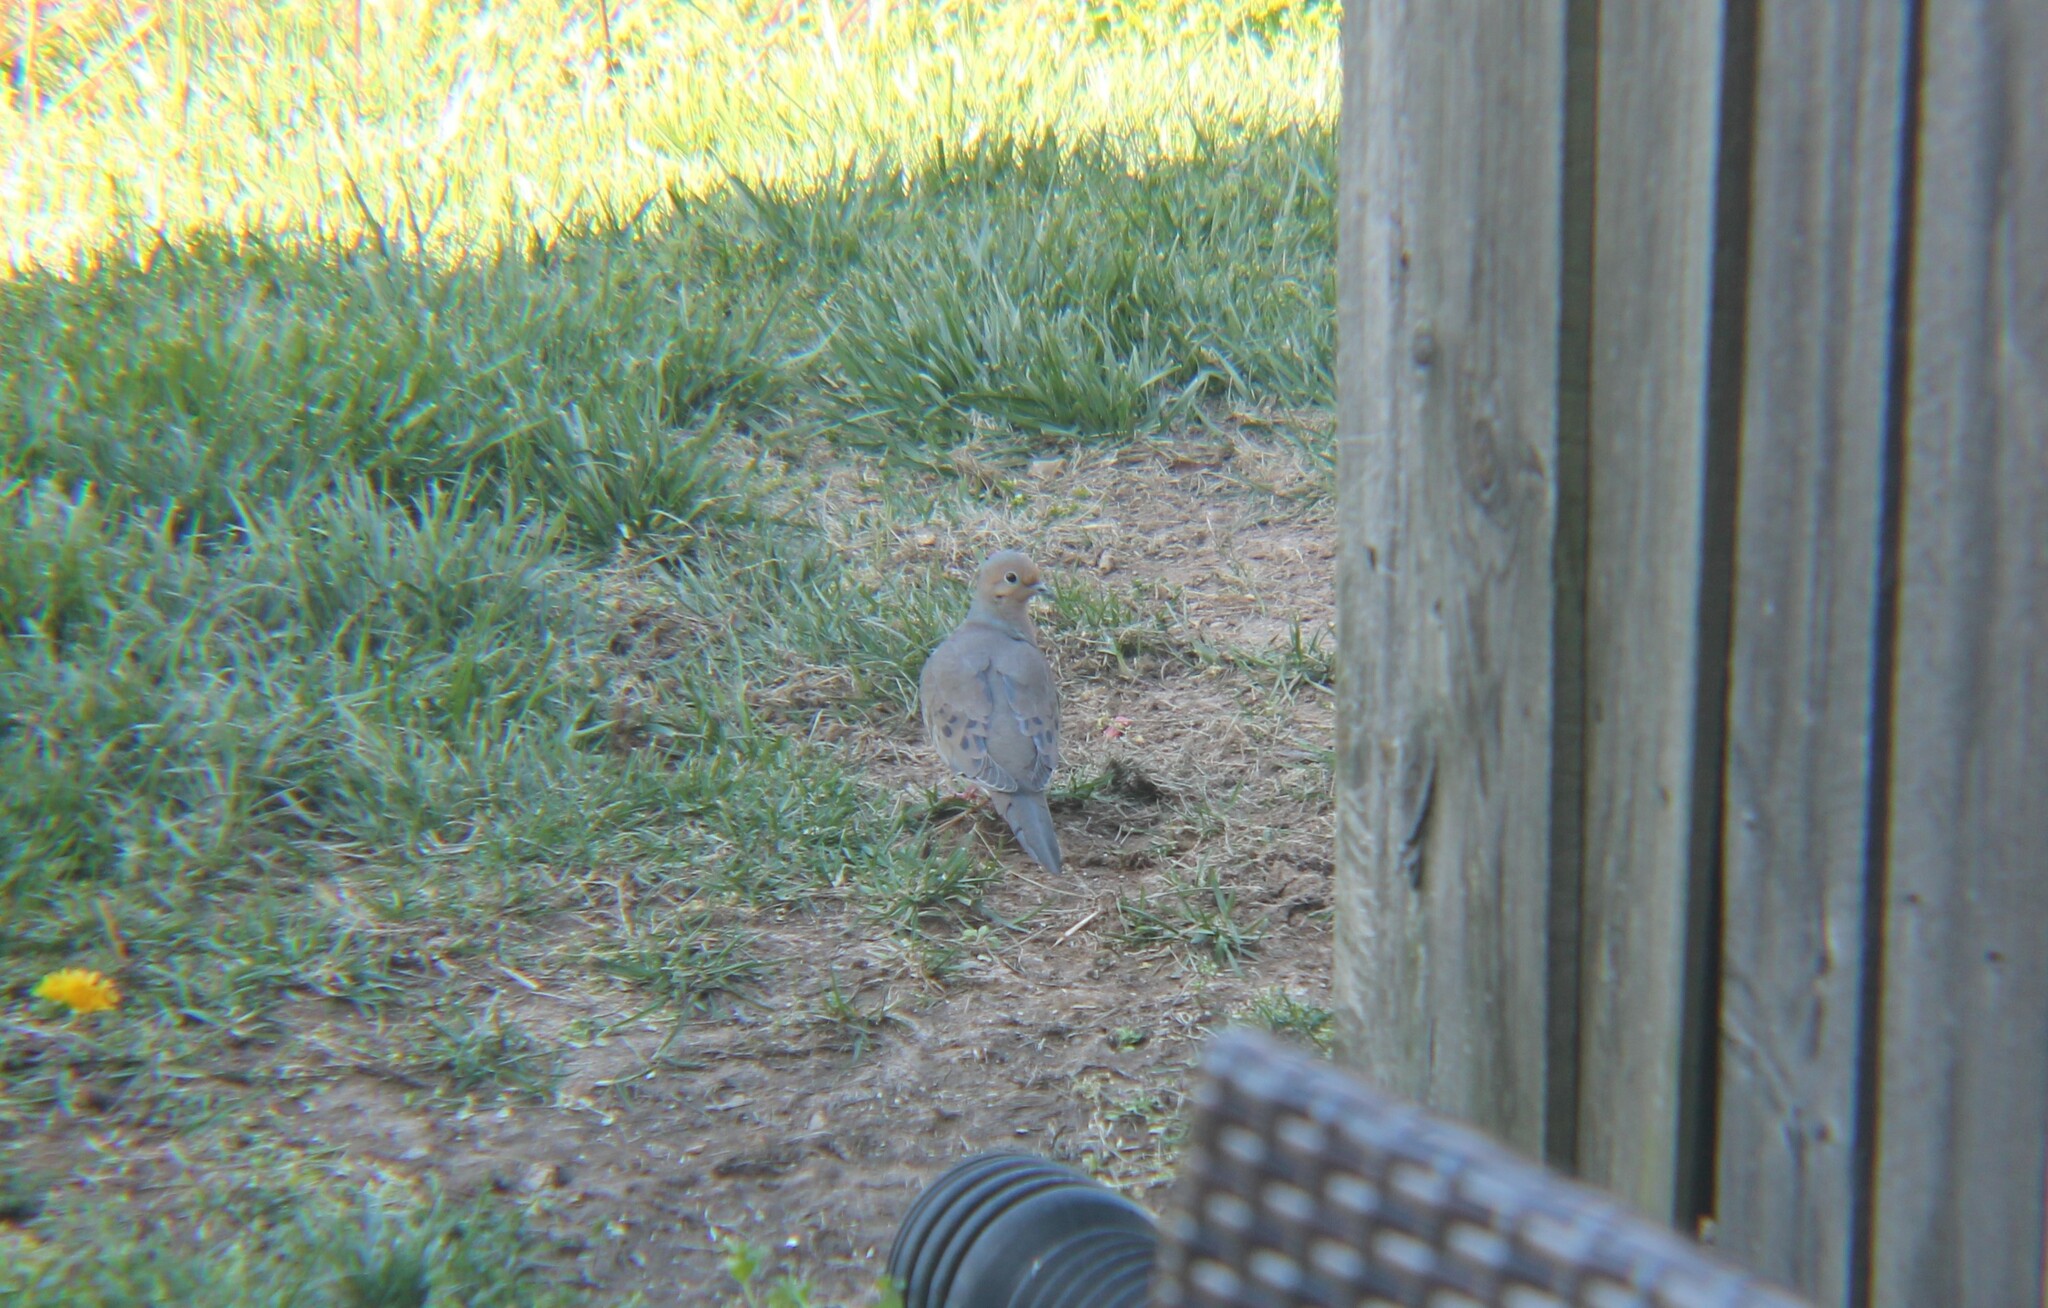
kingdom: Animalia
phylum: Chordata
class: Aves
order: Columbiformes
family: Columbidae
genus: Zenaida
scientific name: Zenaida macroura
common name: Mourning dove
